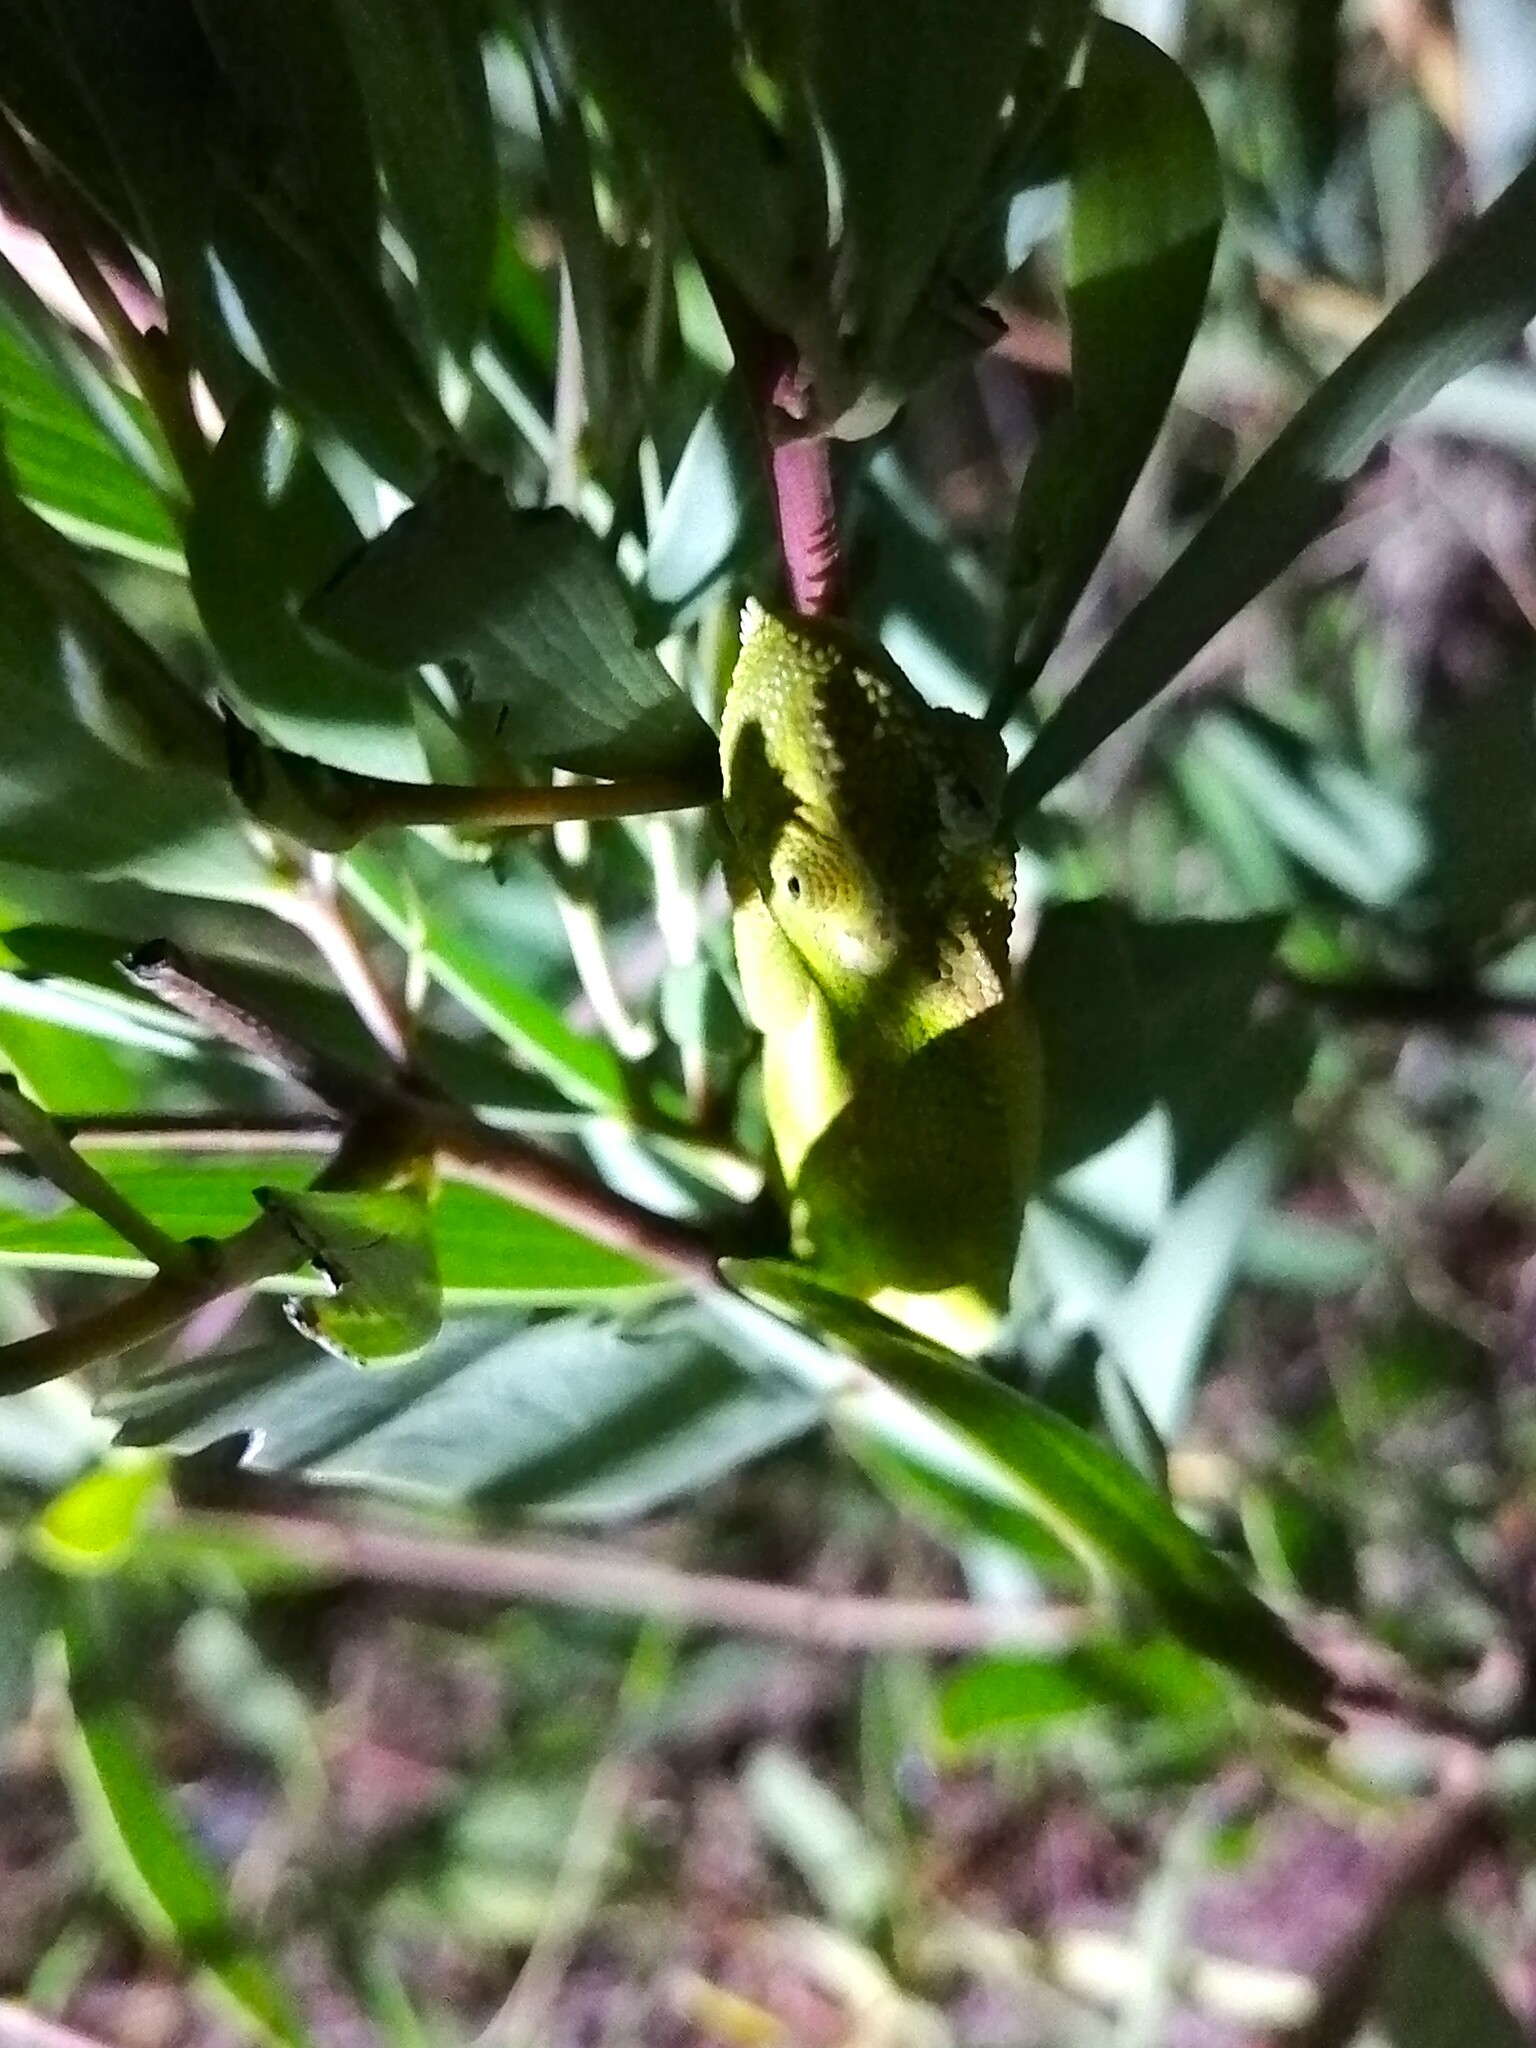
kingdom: Animalia
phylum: Chordata
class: Squamata
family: Chamaeleonidae
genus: Bradypodion
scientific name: Bradypodion pumilum
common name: Cape dwarf chameleon
